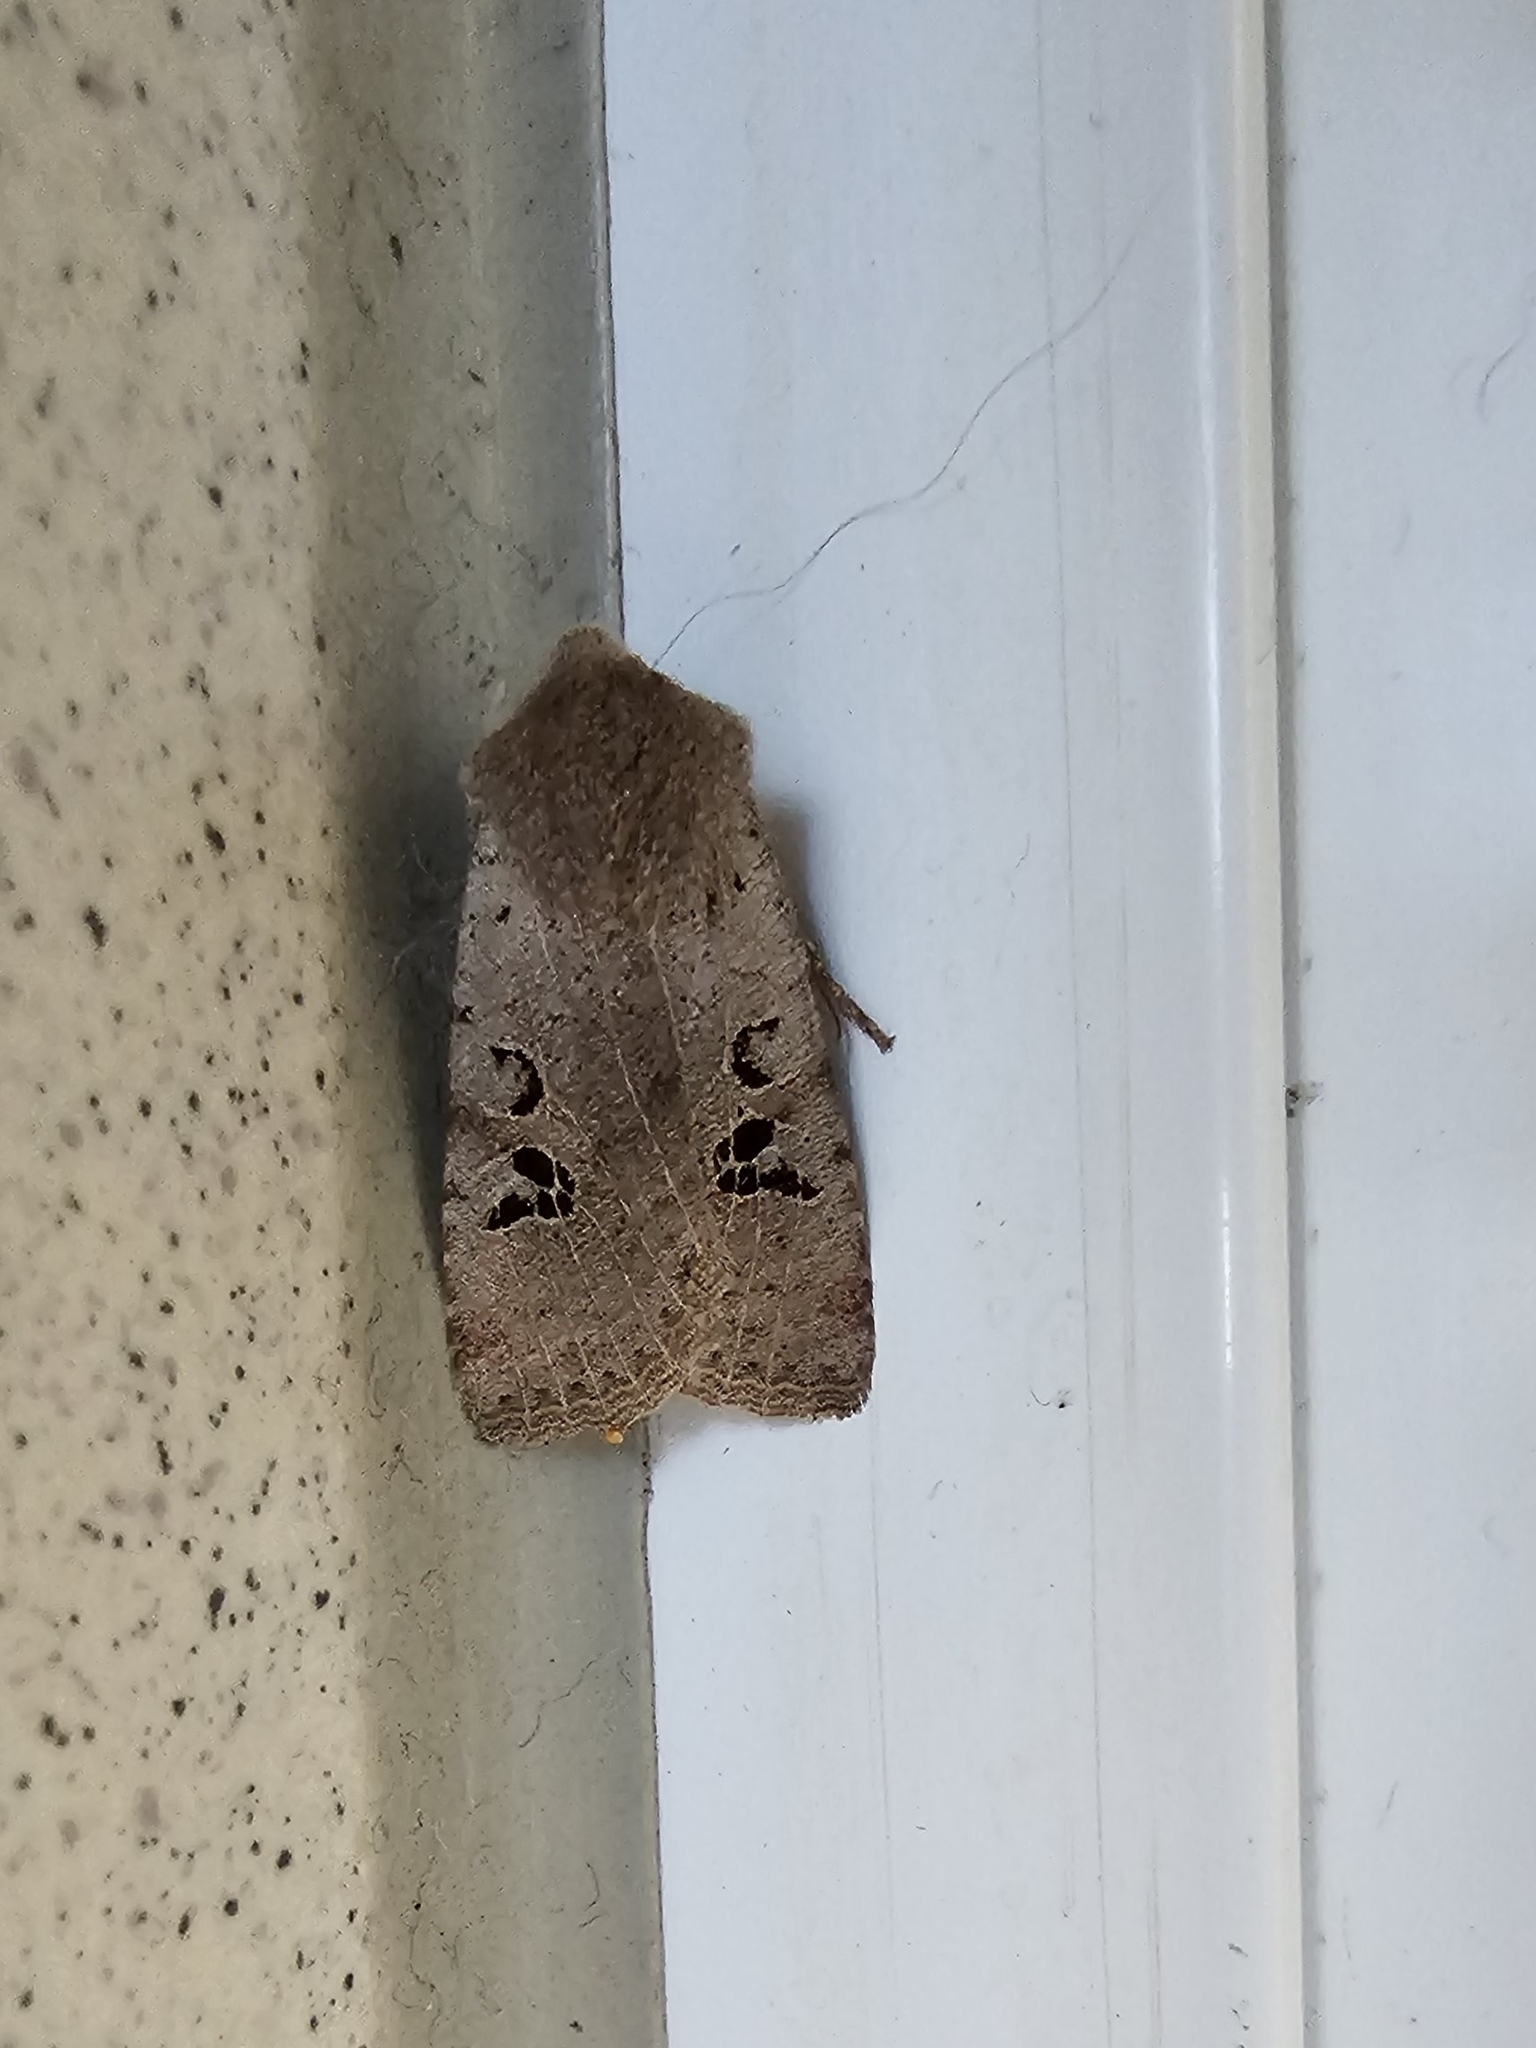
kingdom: Animalia
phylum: Arthropoda
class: Insecta
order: Lepidoptera
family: Noctuidae
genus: Conistra
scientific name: Conistra rubiginosa
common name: Black-spotted chestnut
